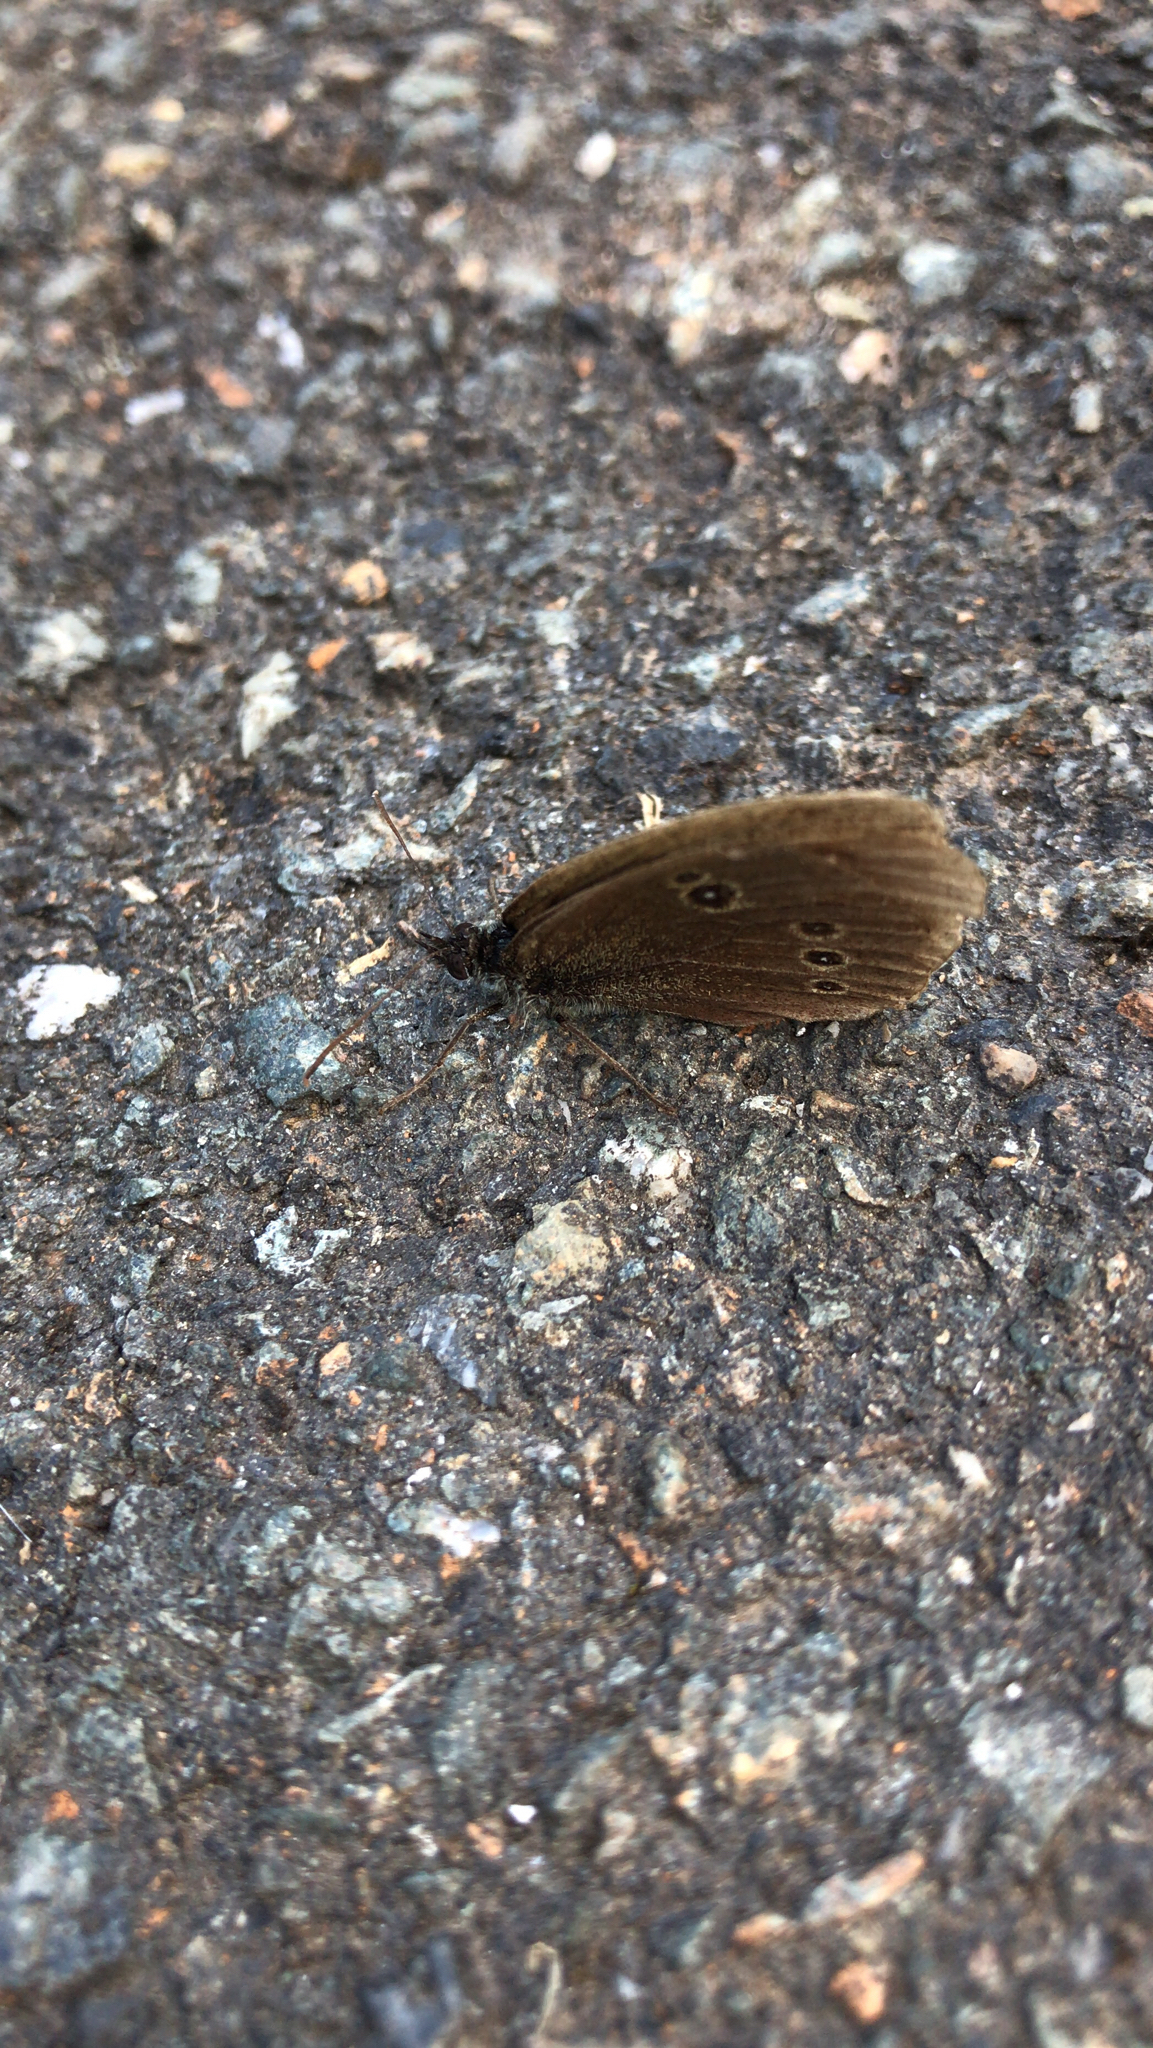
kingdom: Animalia
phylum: Arthropoda
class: Insecta
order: Lepidoptera
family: Nymphalidae
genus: Aphantopus
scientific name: Aphantopus hyperantus
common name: Ringlet
